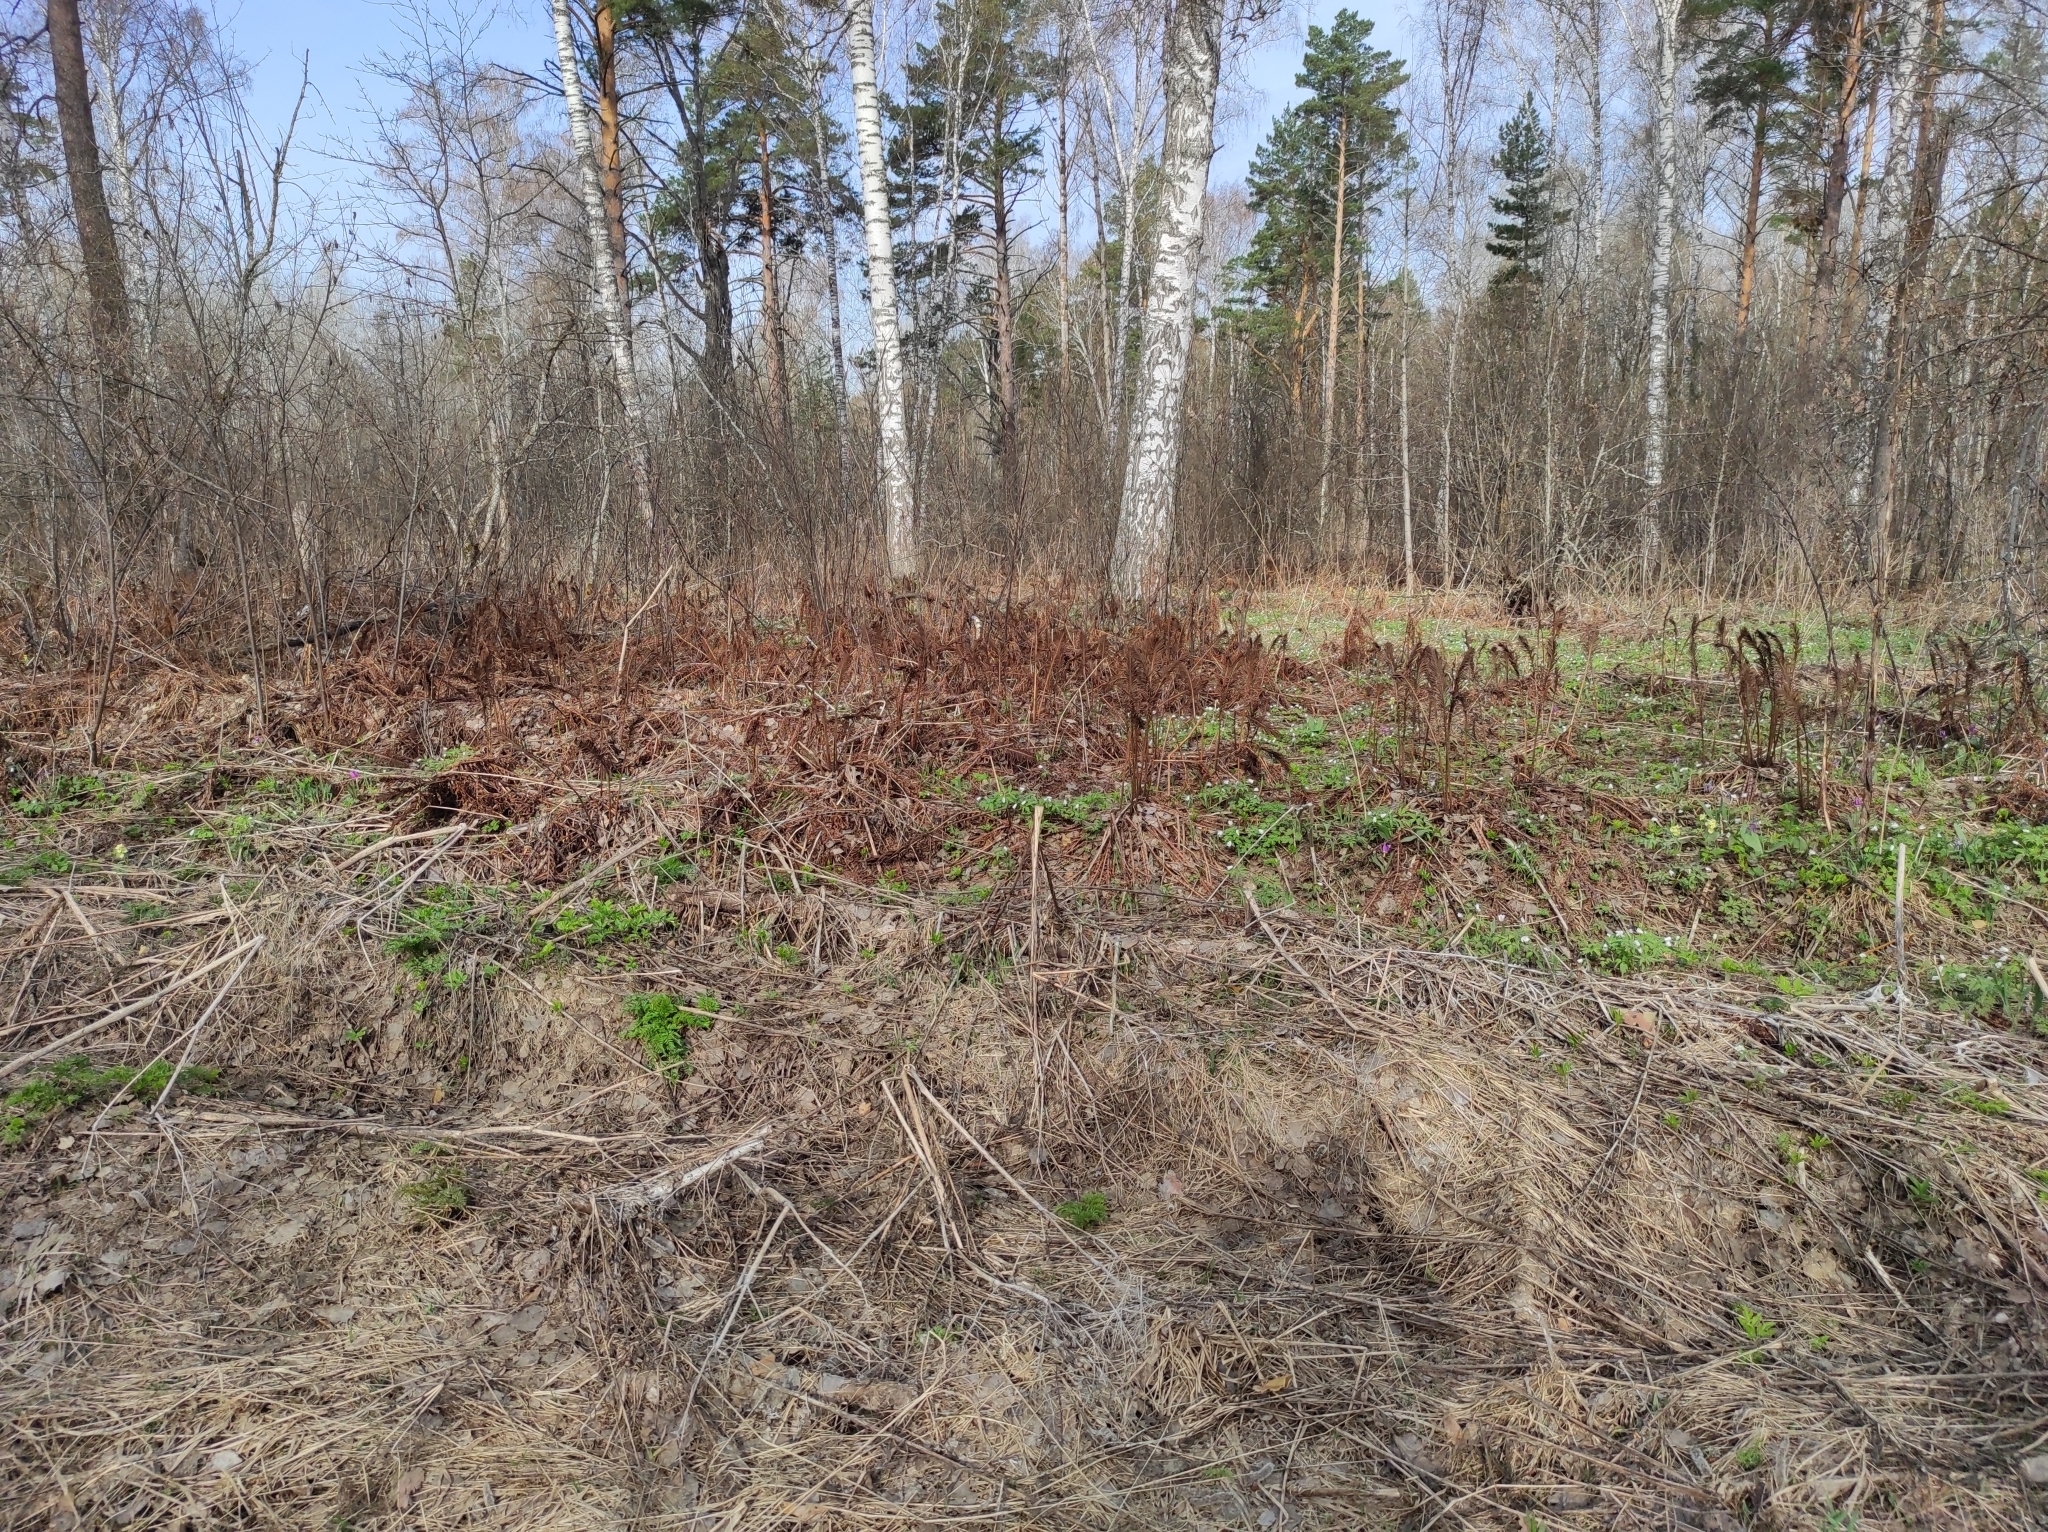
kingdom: Plantae
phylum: Tracheophyta
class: Magnoliopsida
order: Ranunculales
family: Ranunculaceae
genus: Anemone
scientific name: Anemone altaica
